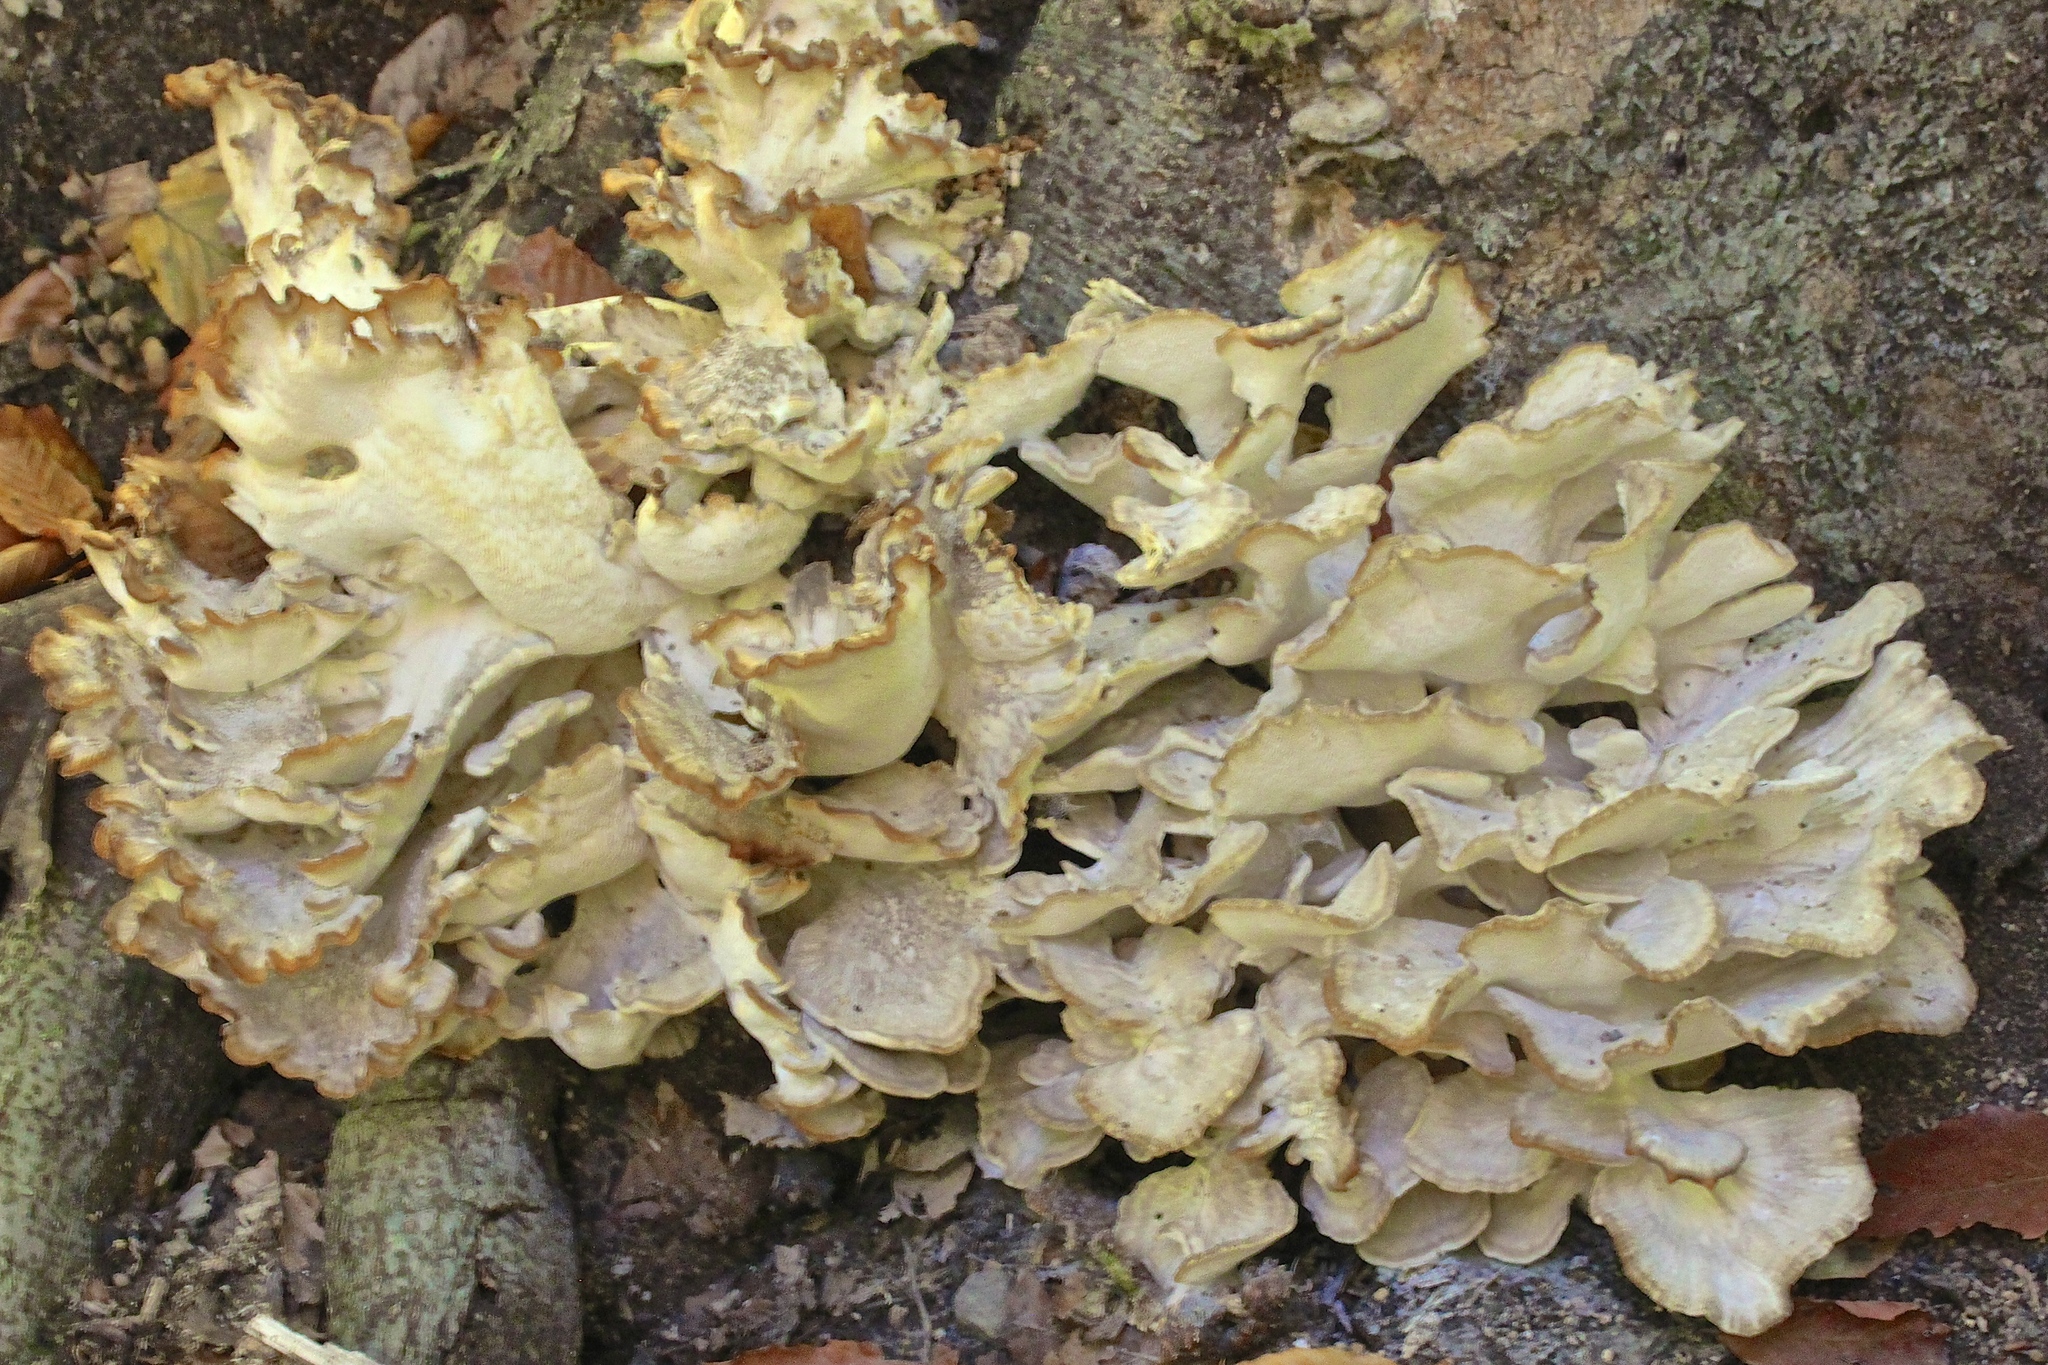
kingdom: Fungi
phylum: Basidiomycota
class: Agaricomycetes
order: Polyporales
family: Grifolaceae
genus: Grifola
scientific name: Grifola frondosa
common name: Hen of the woods
